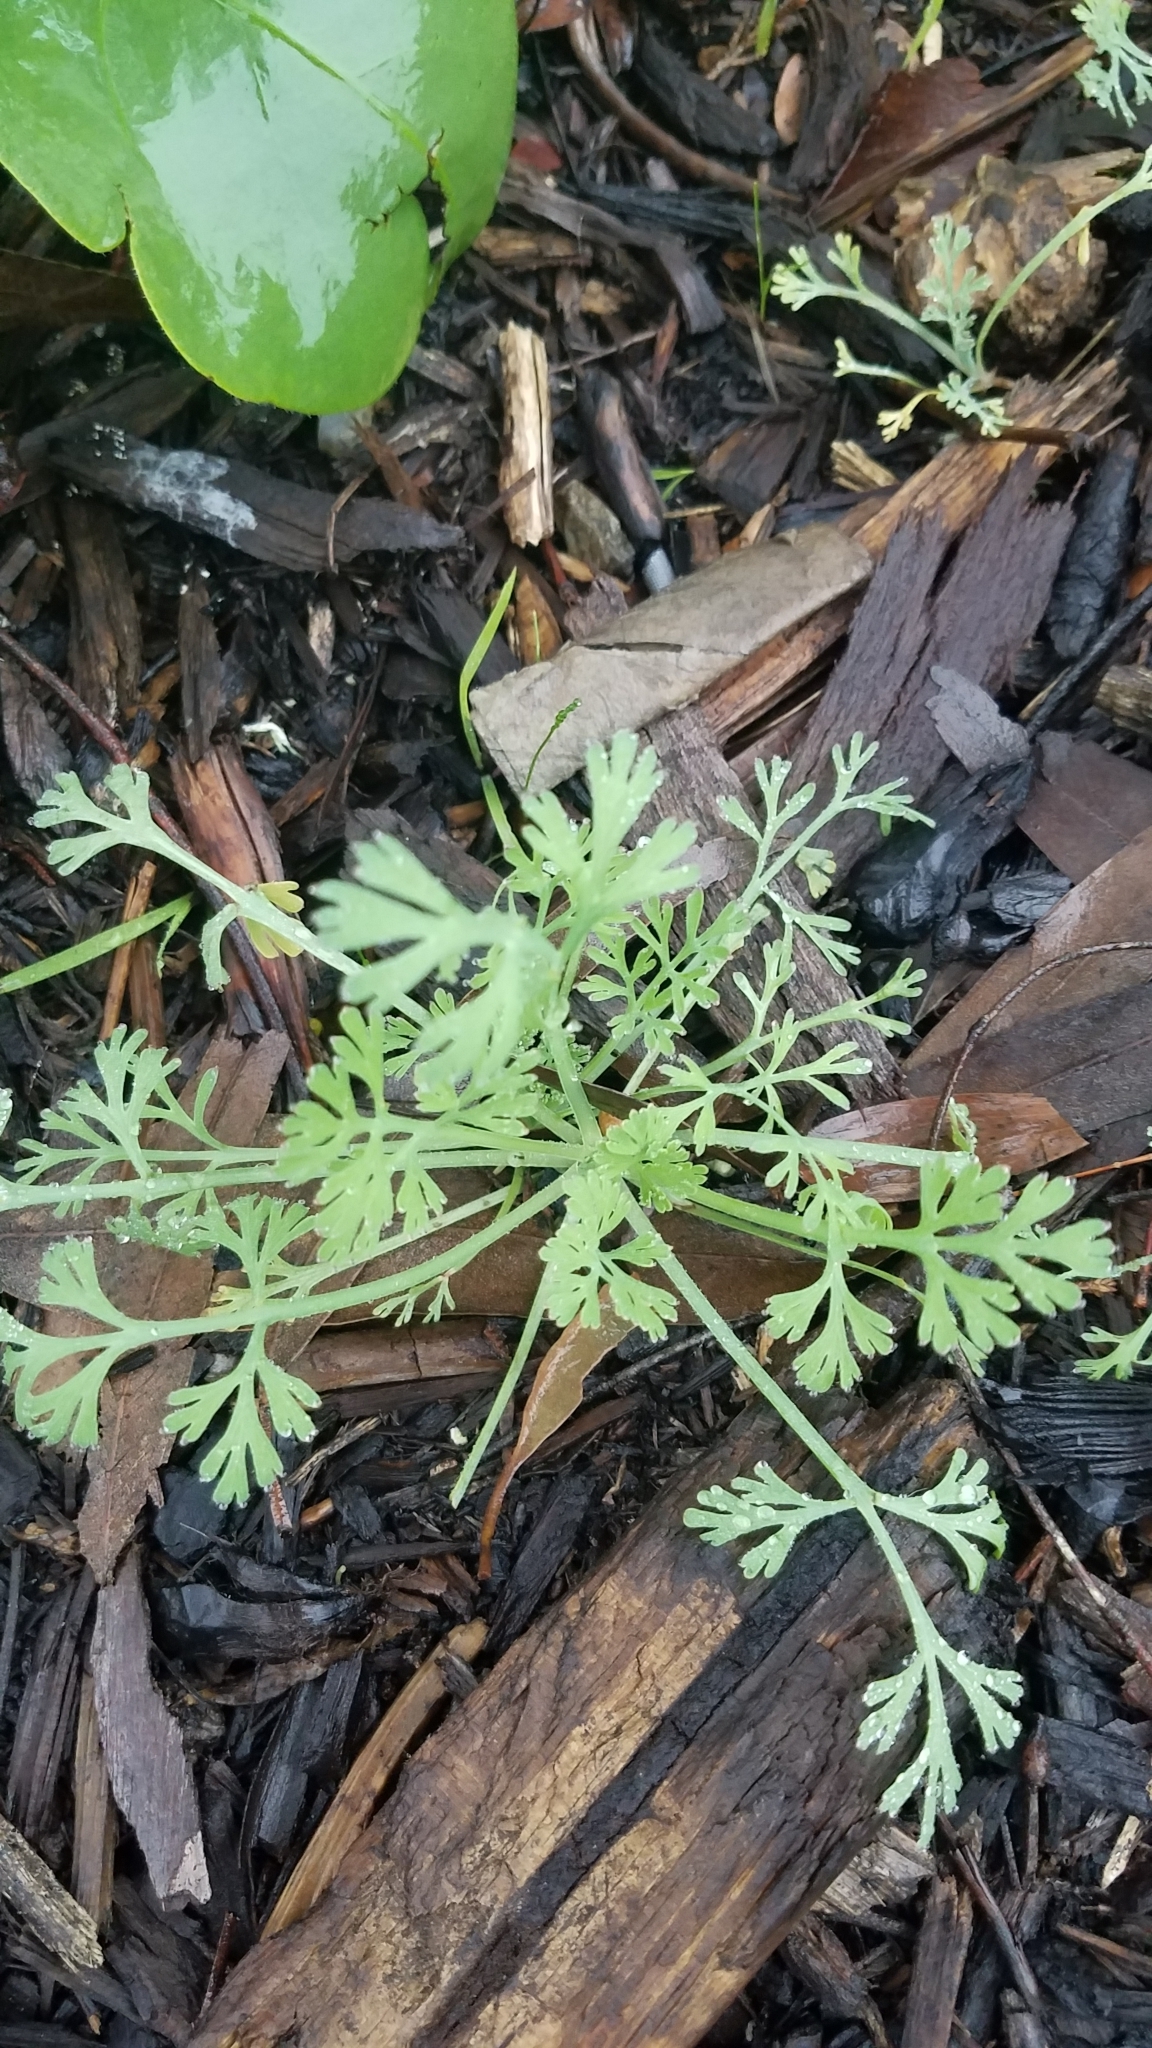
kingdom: Plantae
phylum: Tracheophyta
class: Magnoliopsida
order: Ranunculales
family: Papaveraceae
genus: Eschscholzia
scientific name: Eschscholzia californica
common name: California poppy
